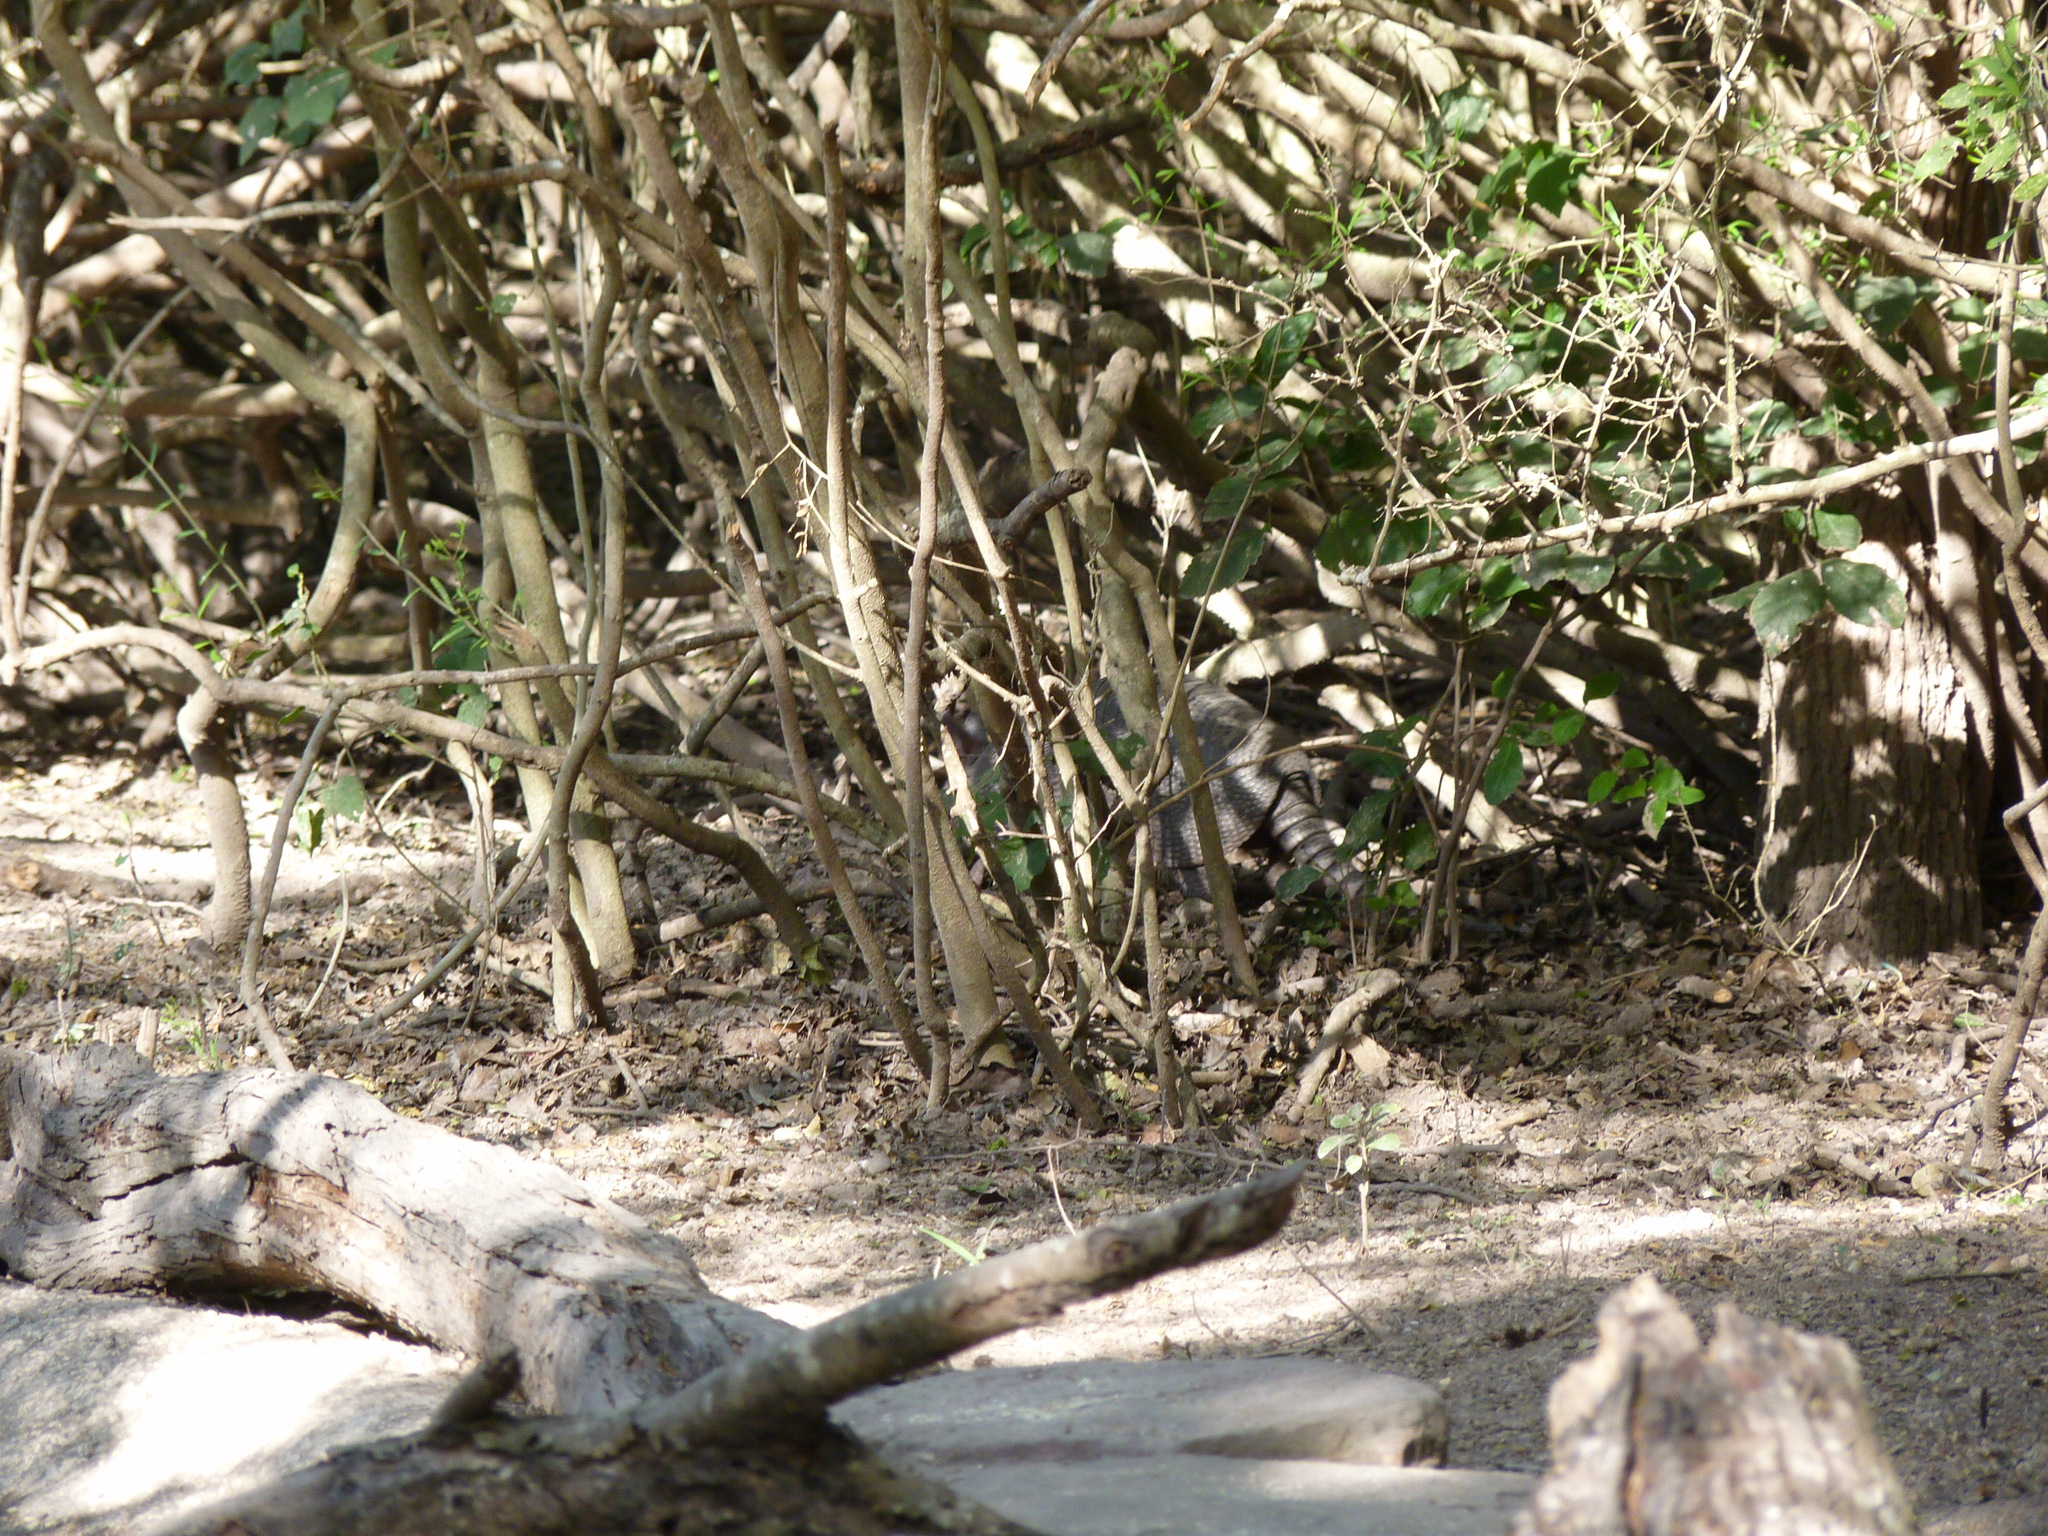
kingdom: Animalia
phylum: Chordata
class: Mammalia
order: Cingulata
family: Dasypodidae
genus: Dasypus
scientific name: Dasypus novemcinctus
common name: Nine-banded armadillo
